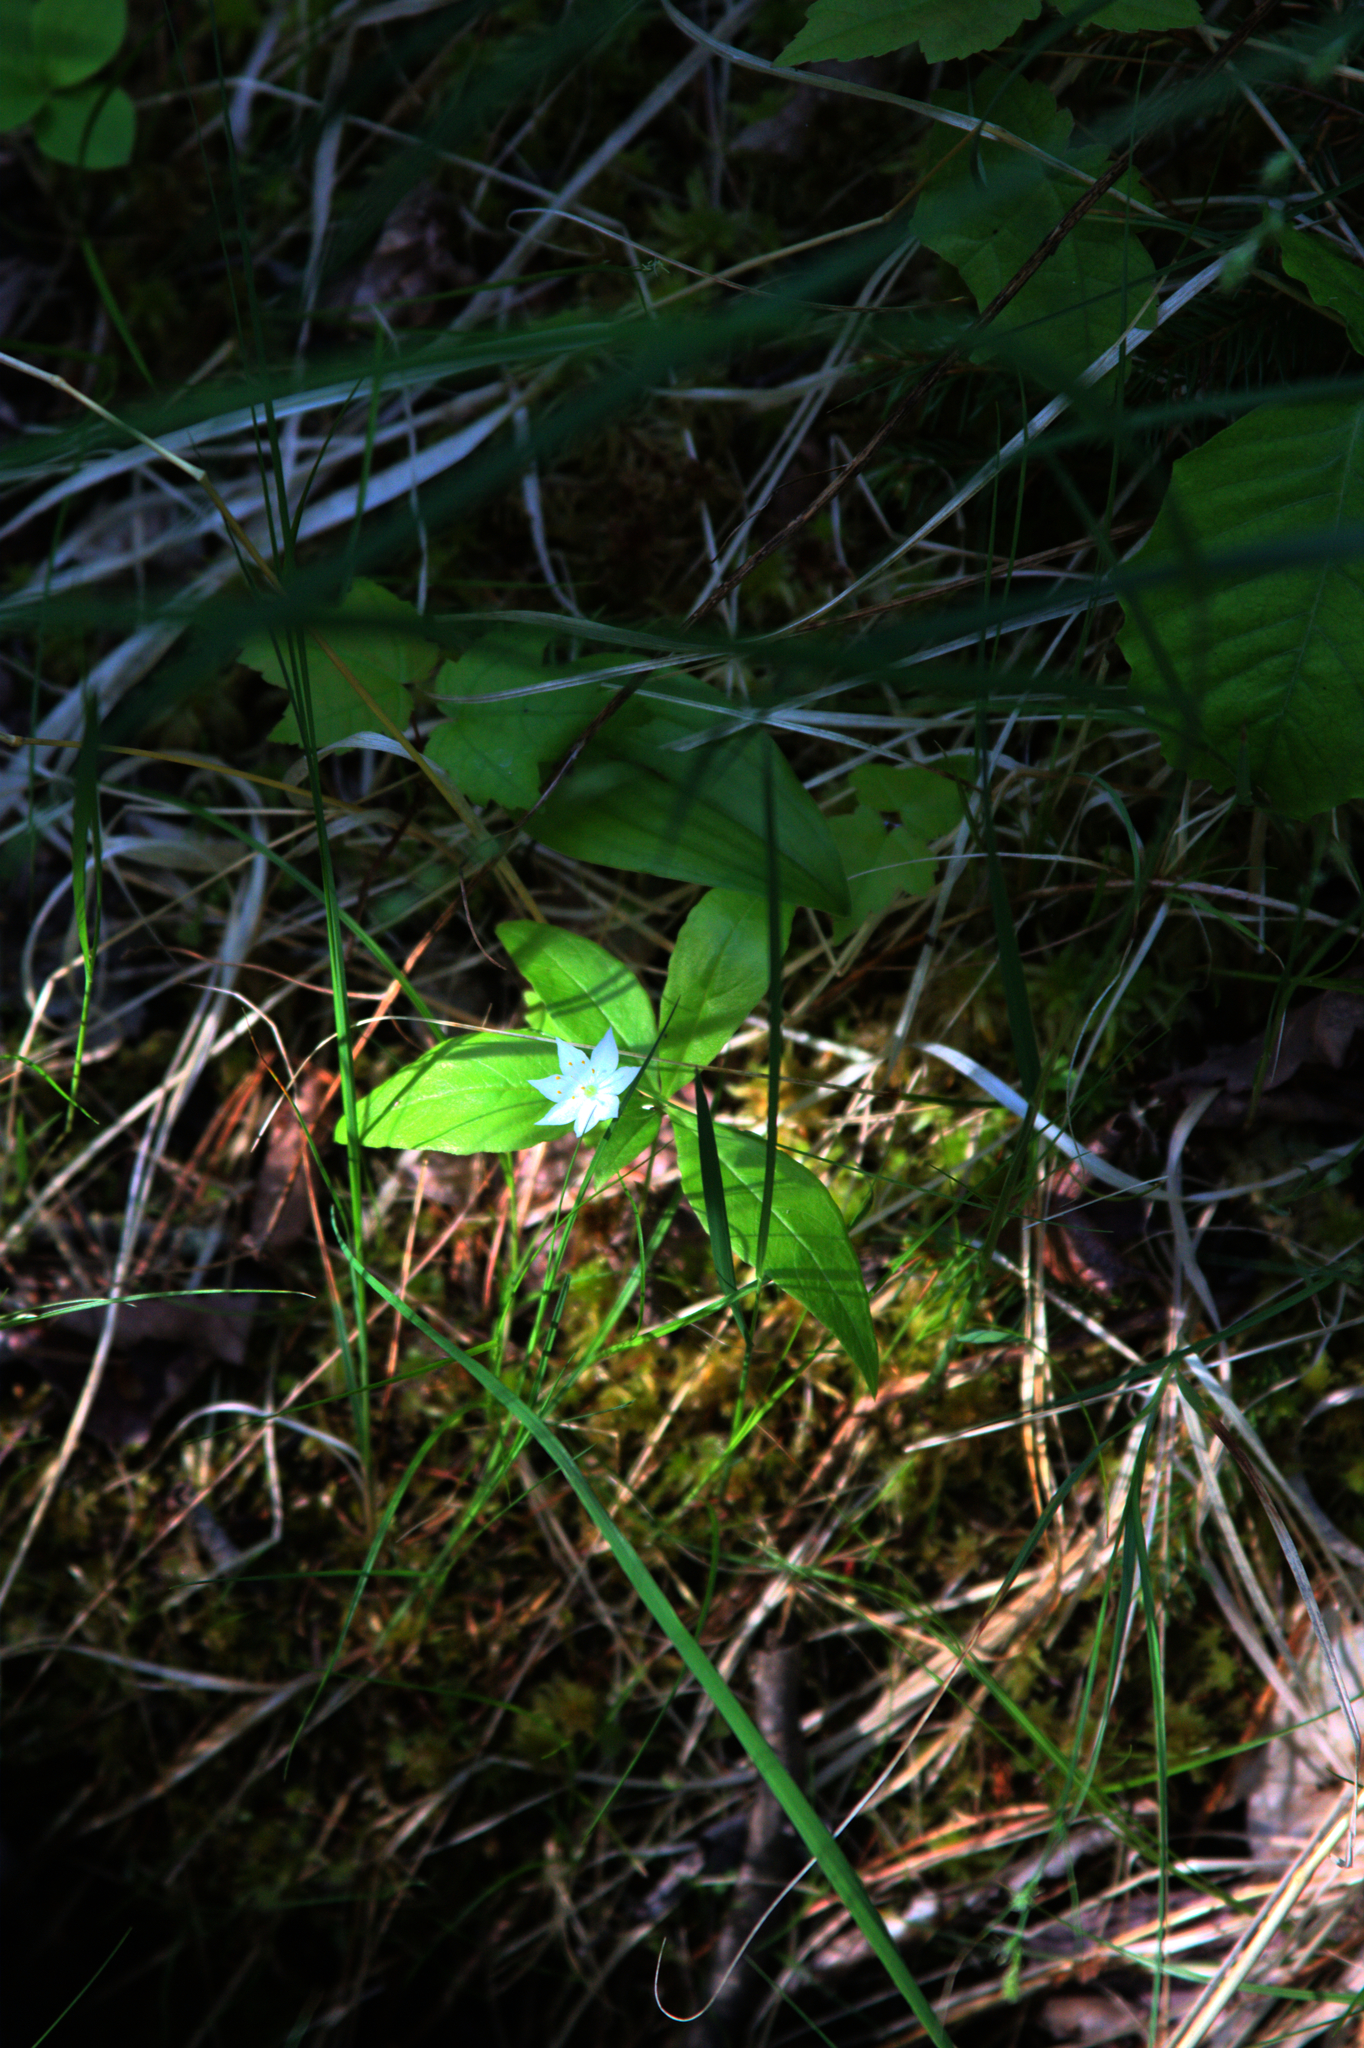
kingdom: Plantae
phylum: Tracheophyta
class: Magnoliopsida
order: Ericales
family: Primulaceae
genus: Lysimachia
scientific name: Lysimachia borealis
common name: American starflower
